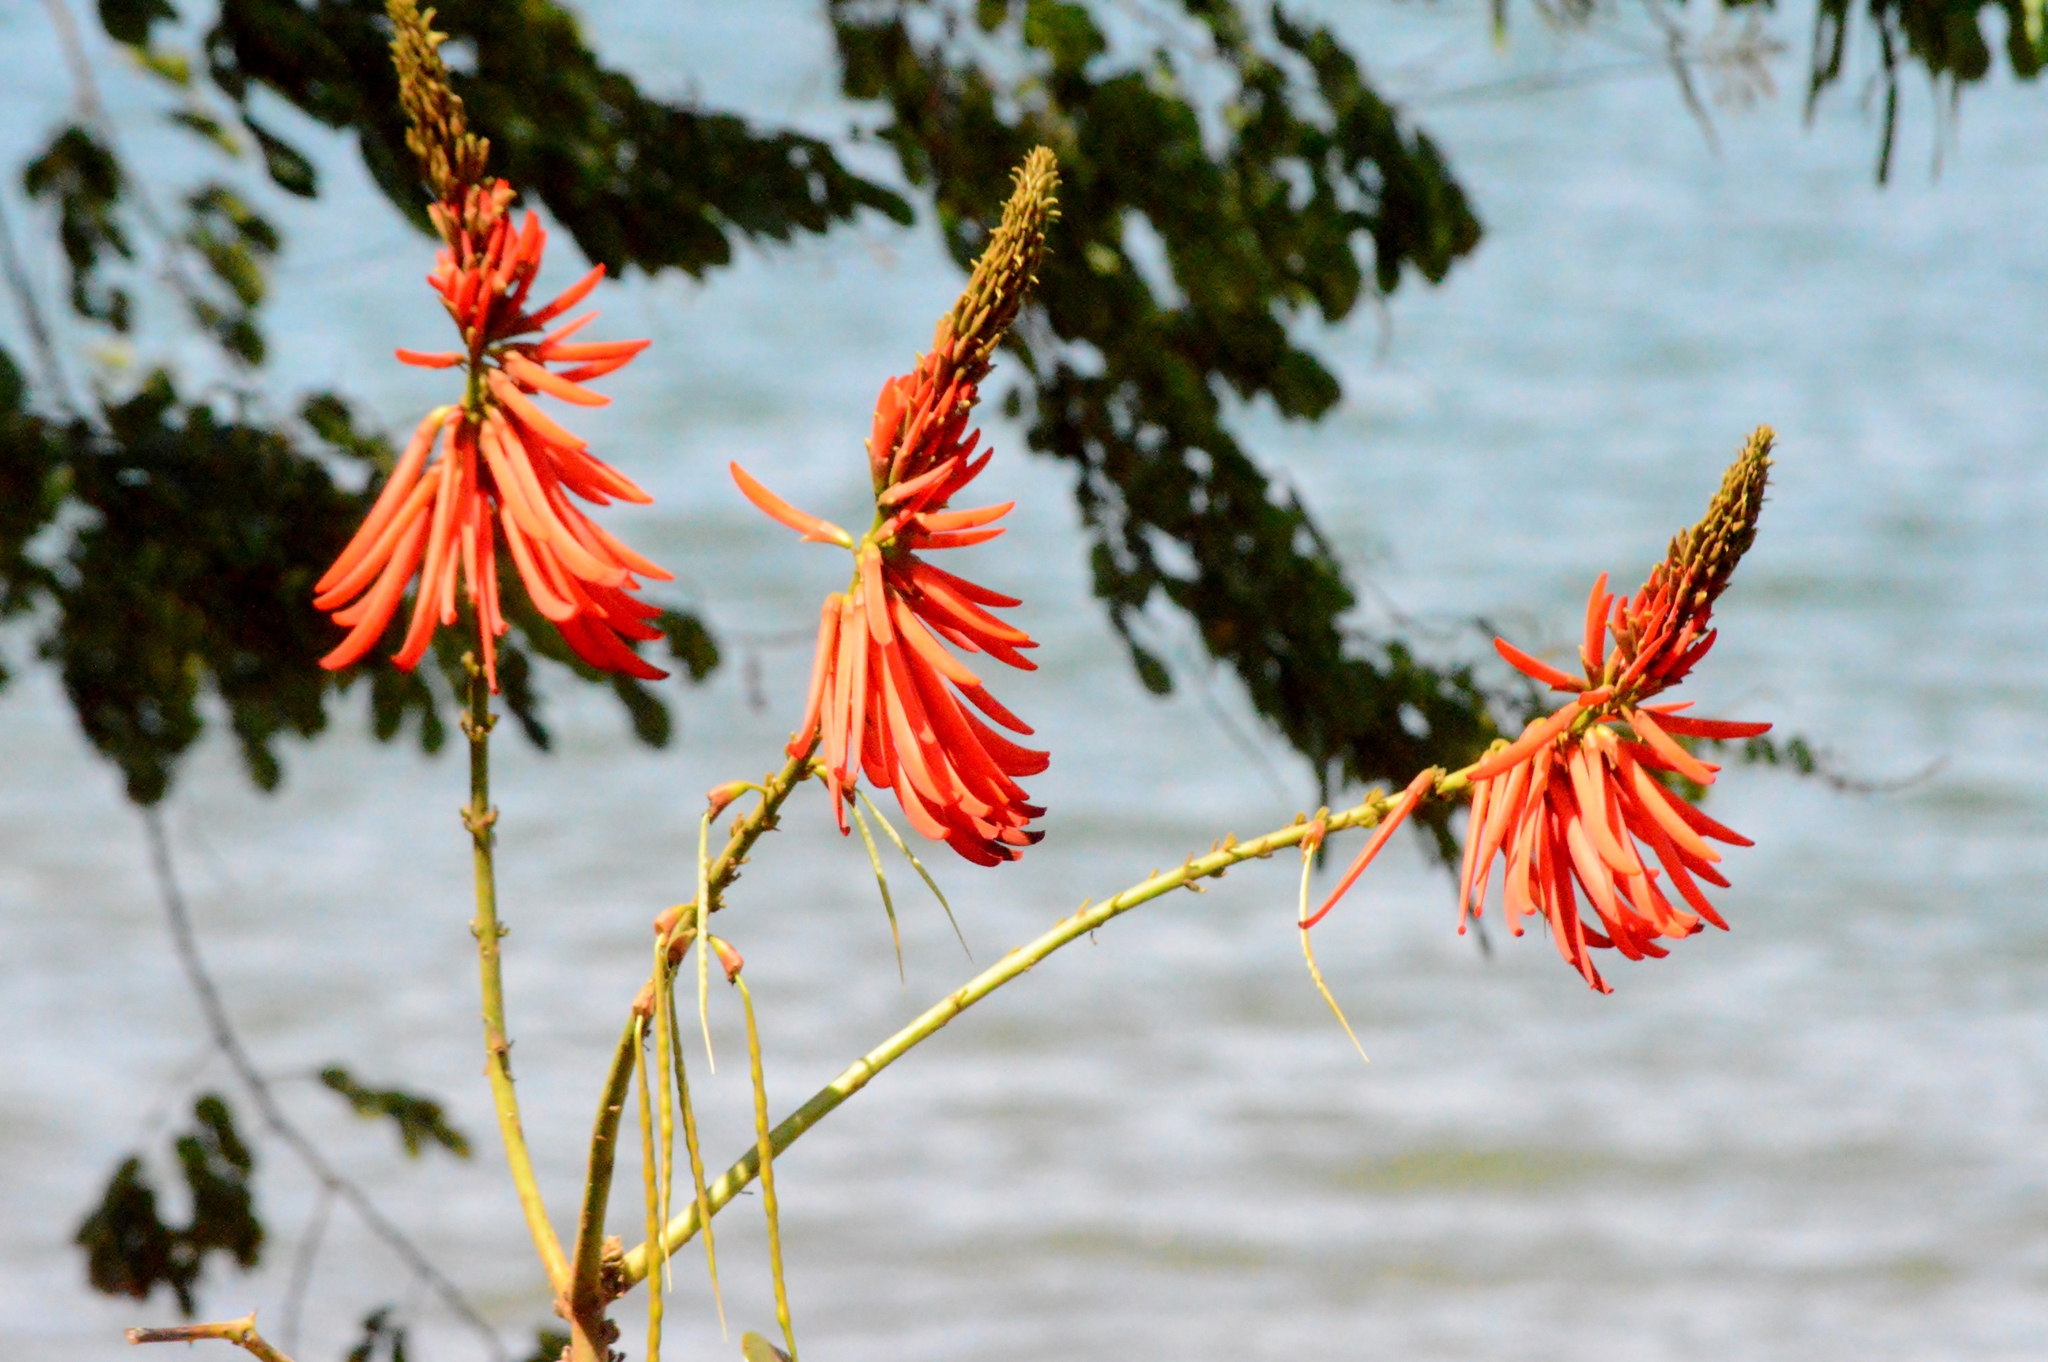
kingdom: Plantae
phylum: Tracheophyta
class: Magnoliopsida
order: Fabales
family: Fabaceae
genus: Erythrina
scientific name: Erythrina speciosa
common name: Coral tree
